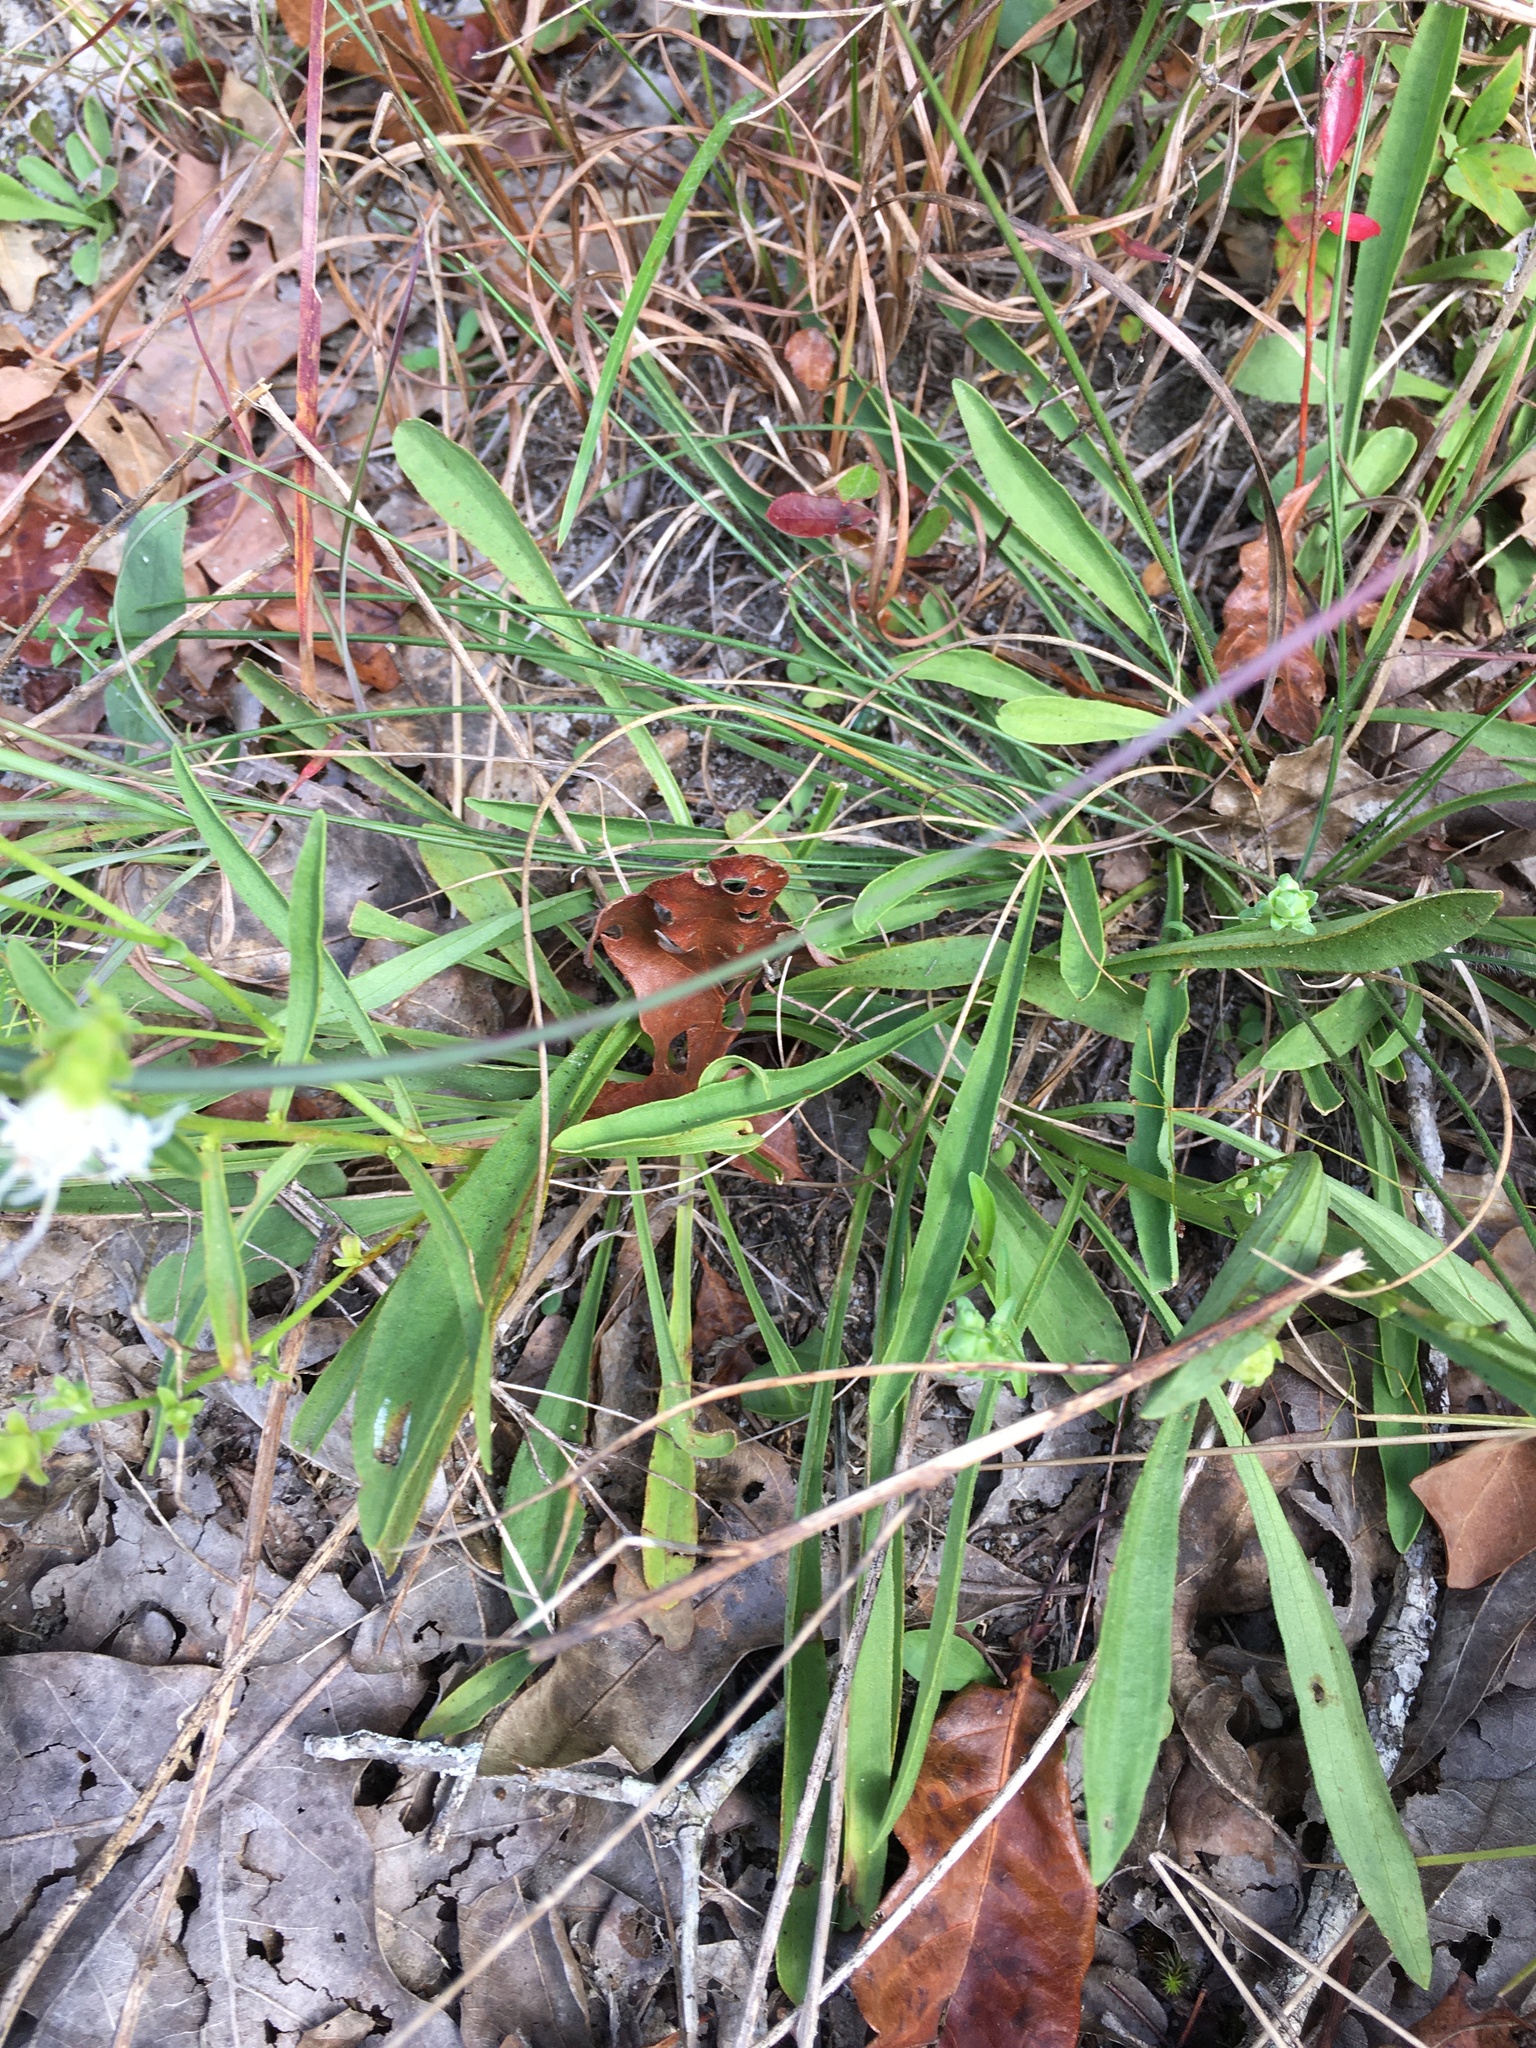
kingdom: Plantae
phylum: Tracheophyta
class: Magnoliopsida
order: Asterales
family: Asteraceae
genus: Carphephorus
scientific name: Carphephorus bellidifolius
